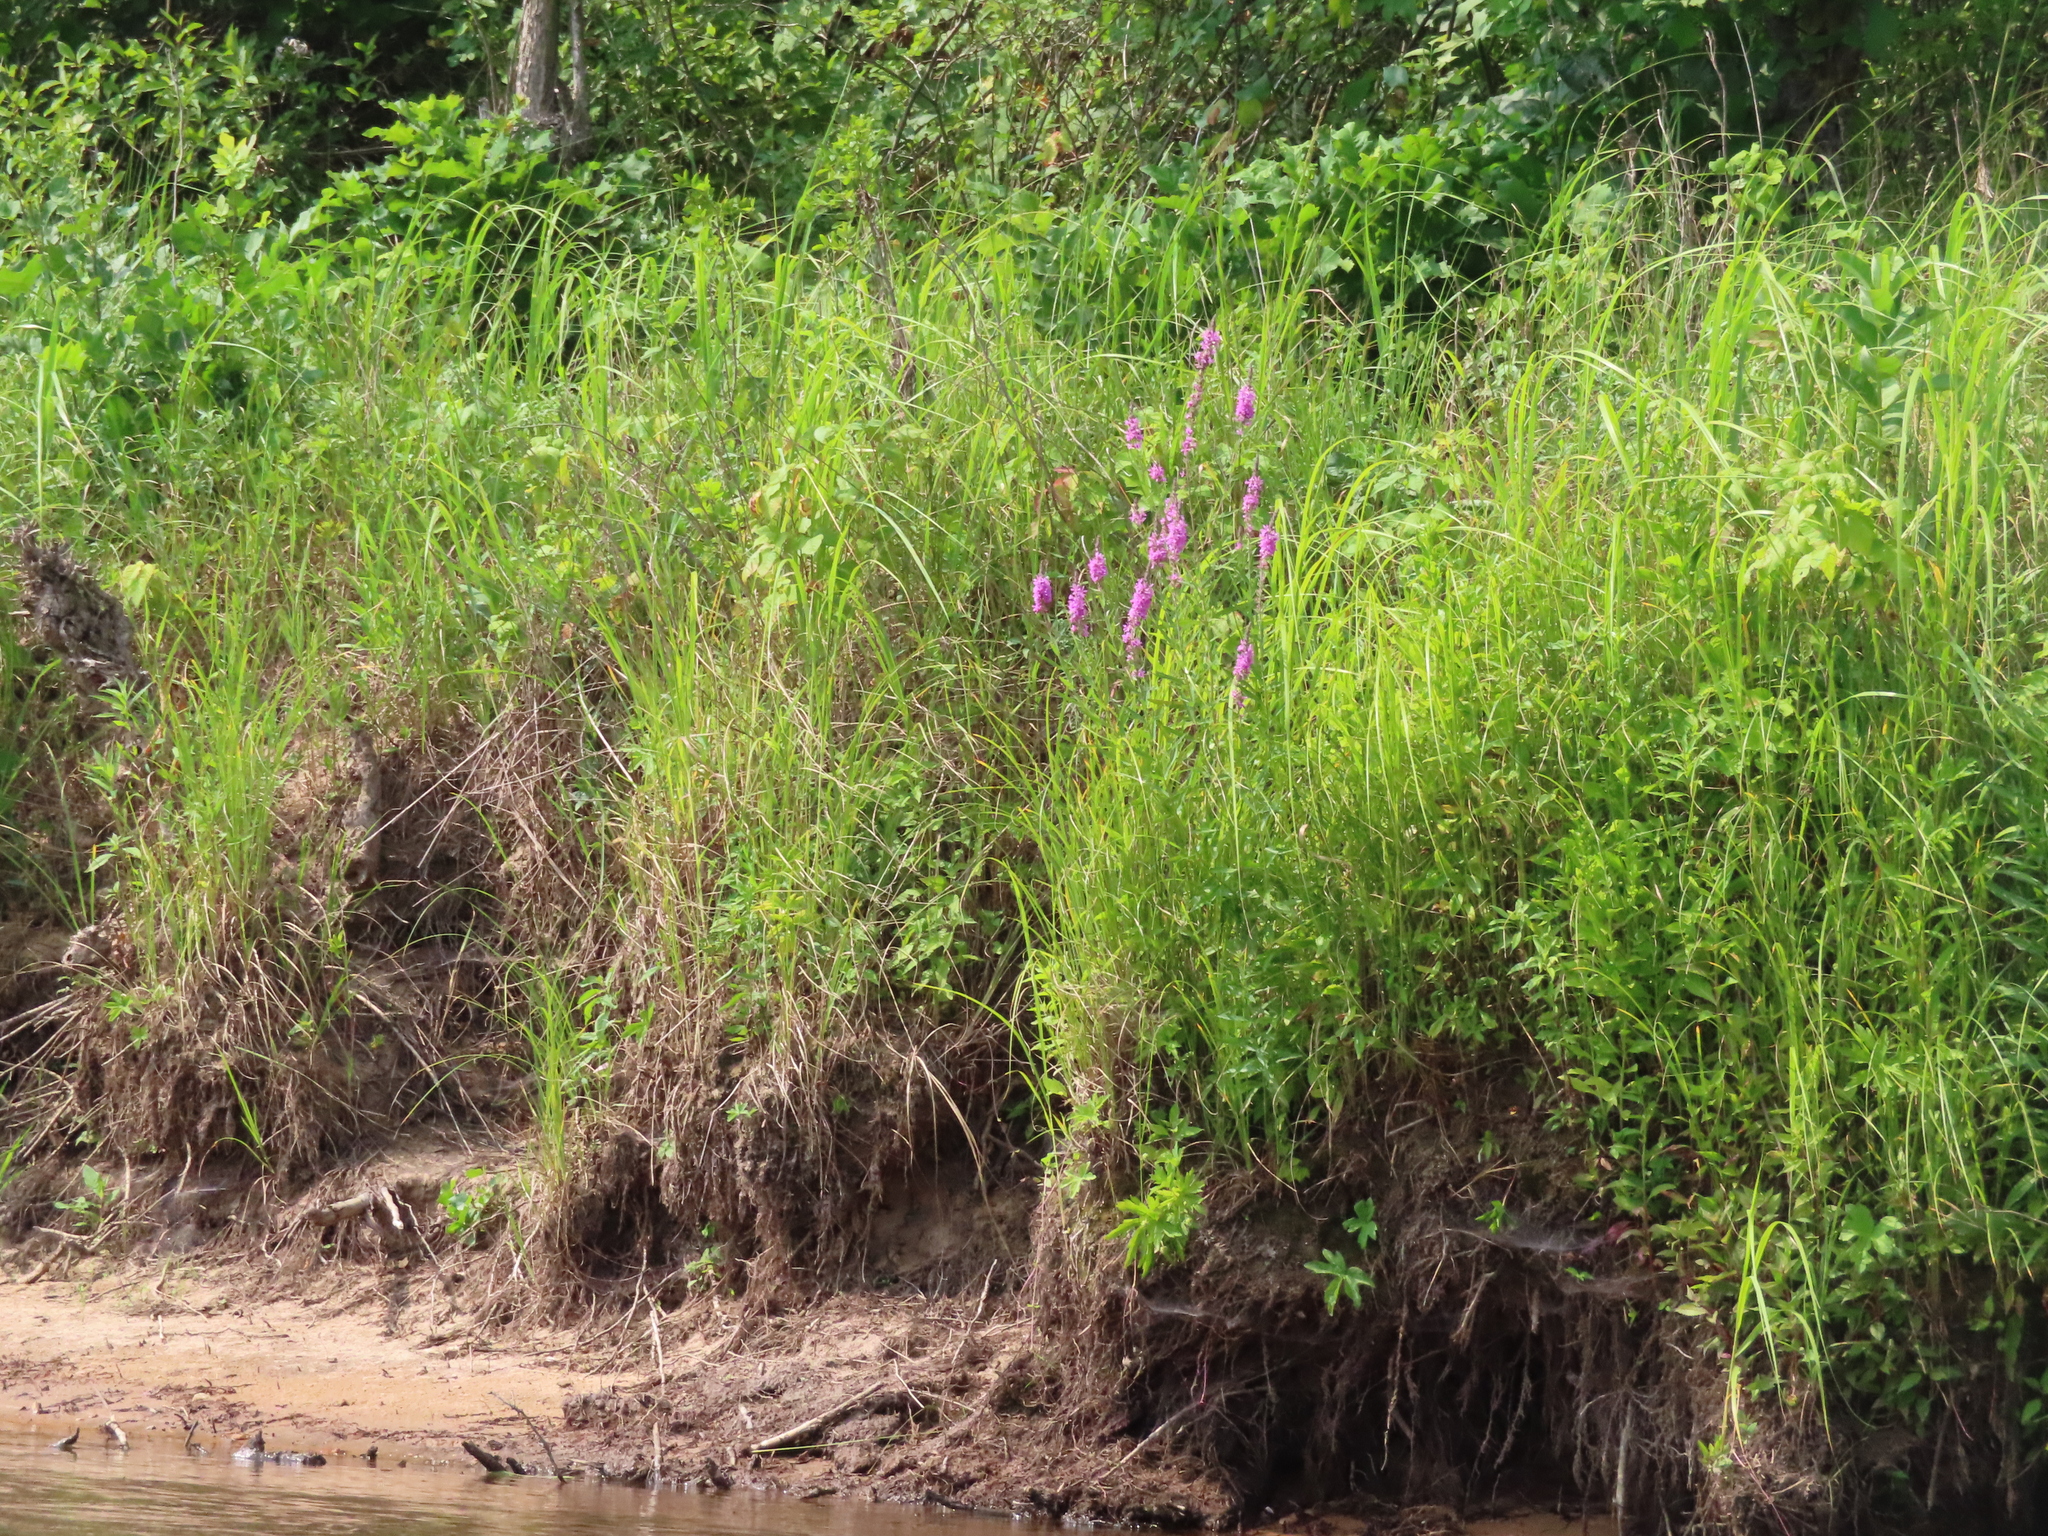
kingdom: Plantae
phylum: Tracheophyta
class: Magnoliopsida
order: Myrtales
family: Lythraceae
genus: Lythrum
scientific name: Lythrum salicaria
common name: Purple loosestrife
